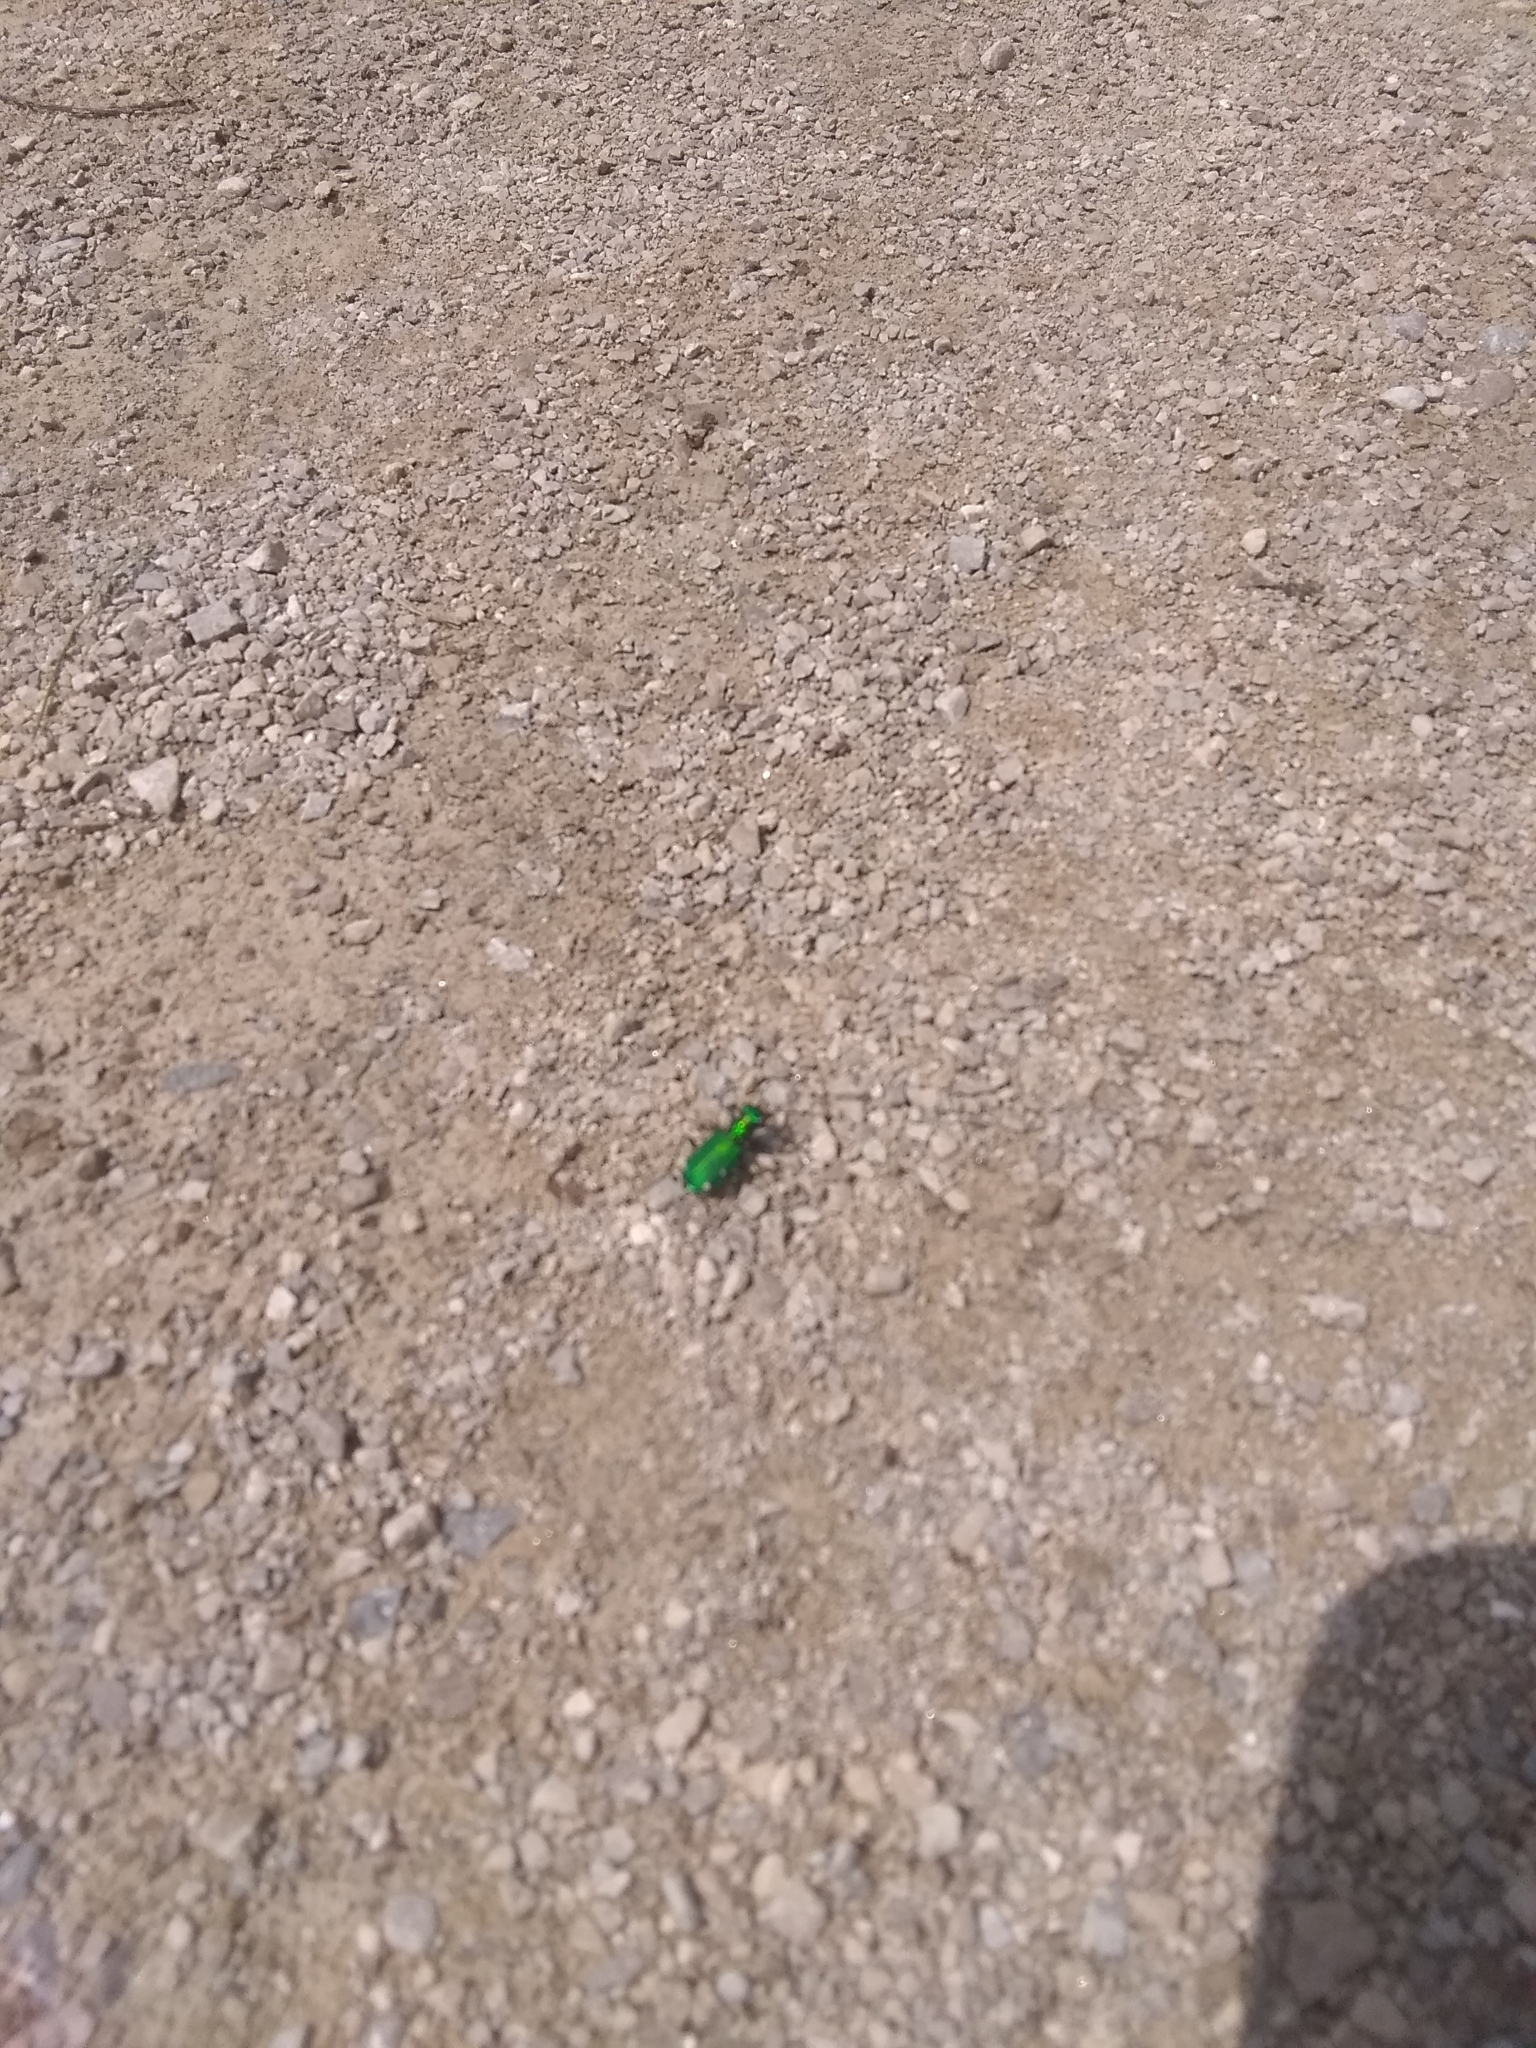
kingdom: Animalia
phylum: Arthropoda
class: Insecta
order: Coleoptera
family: Carabidae
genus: Cicindela
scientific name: Cicindela sexguttata
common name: Six-spotted tiger beetle
